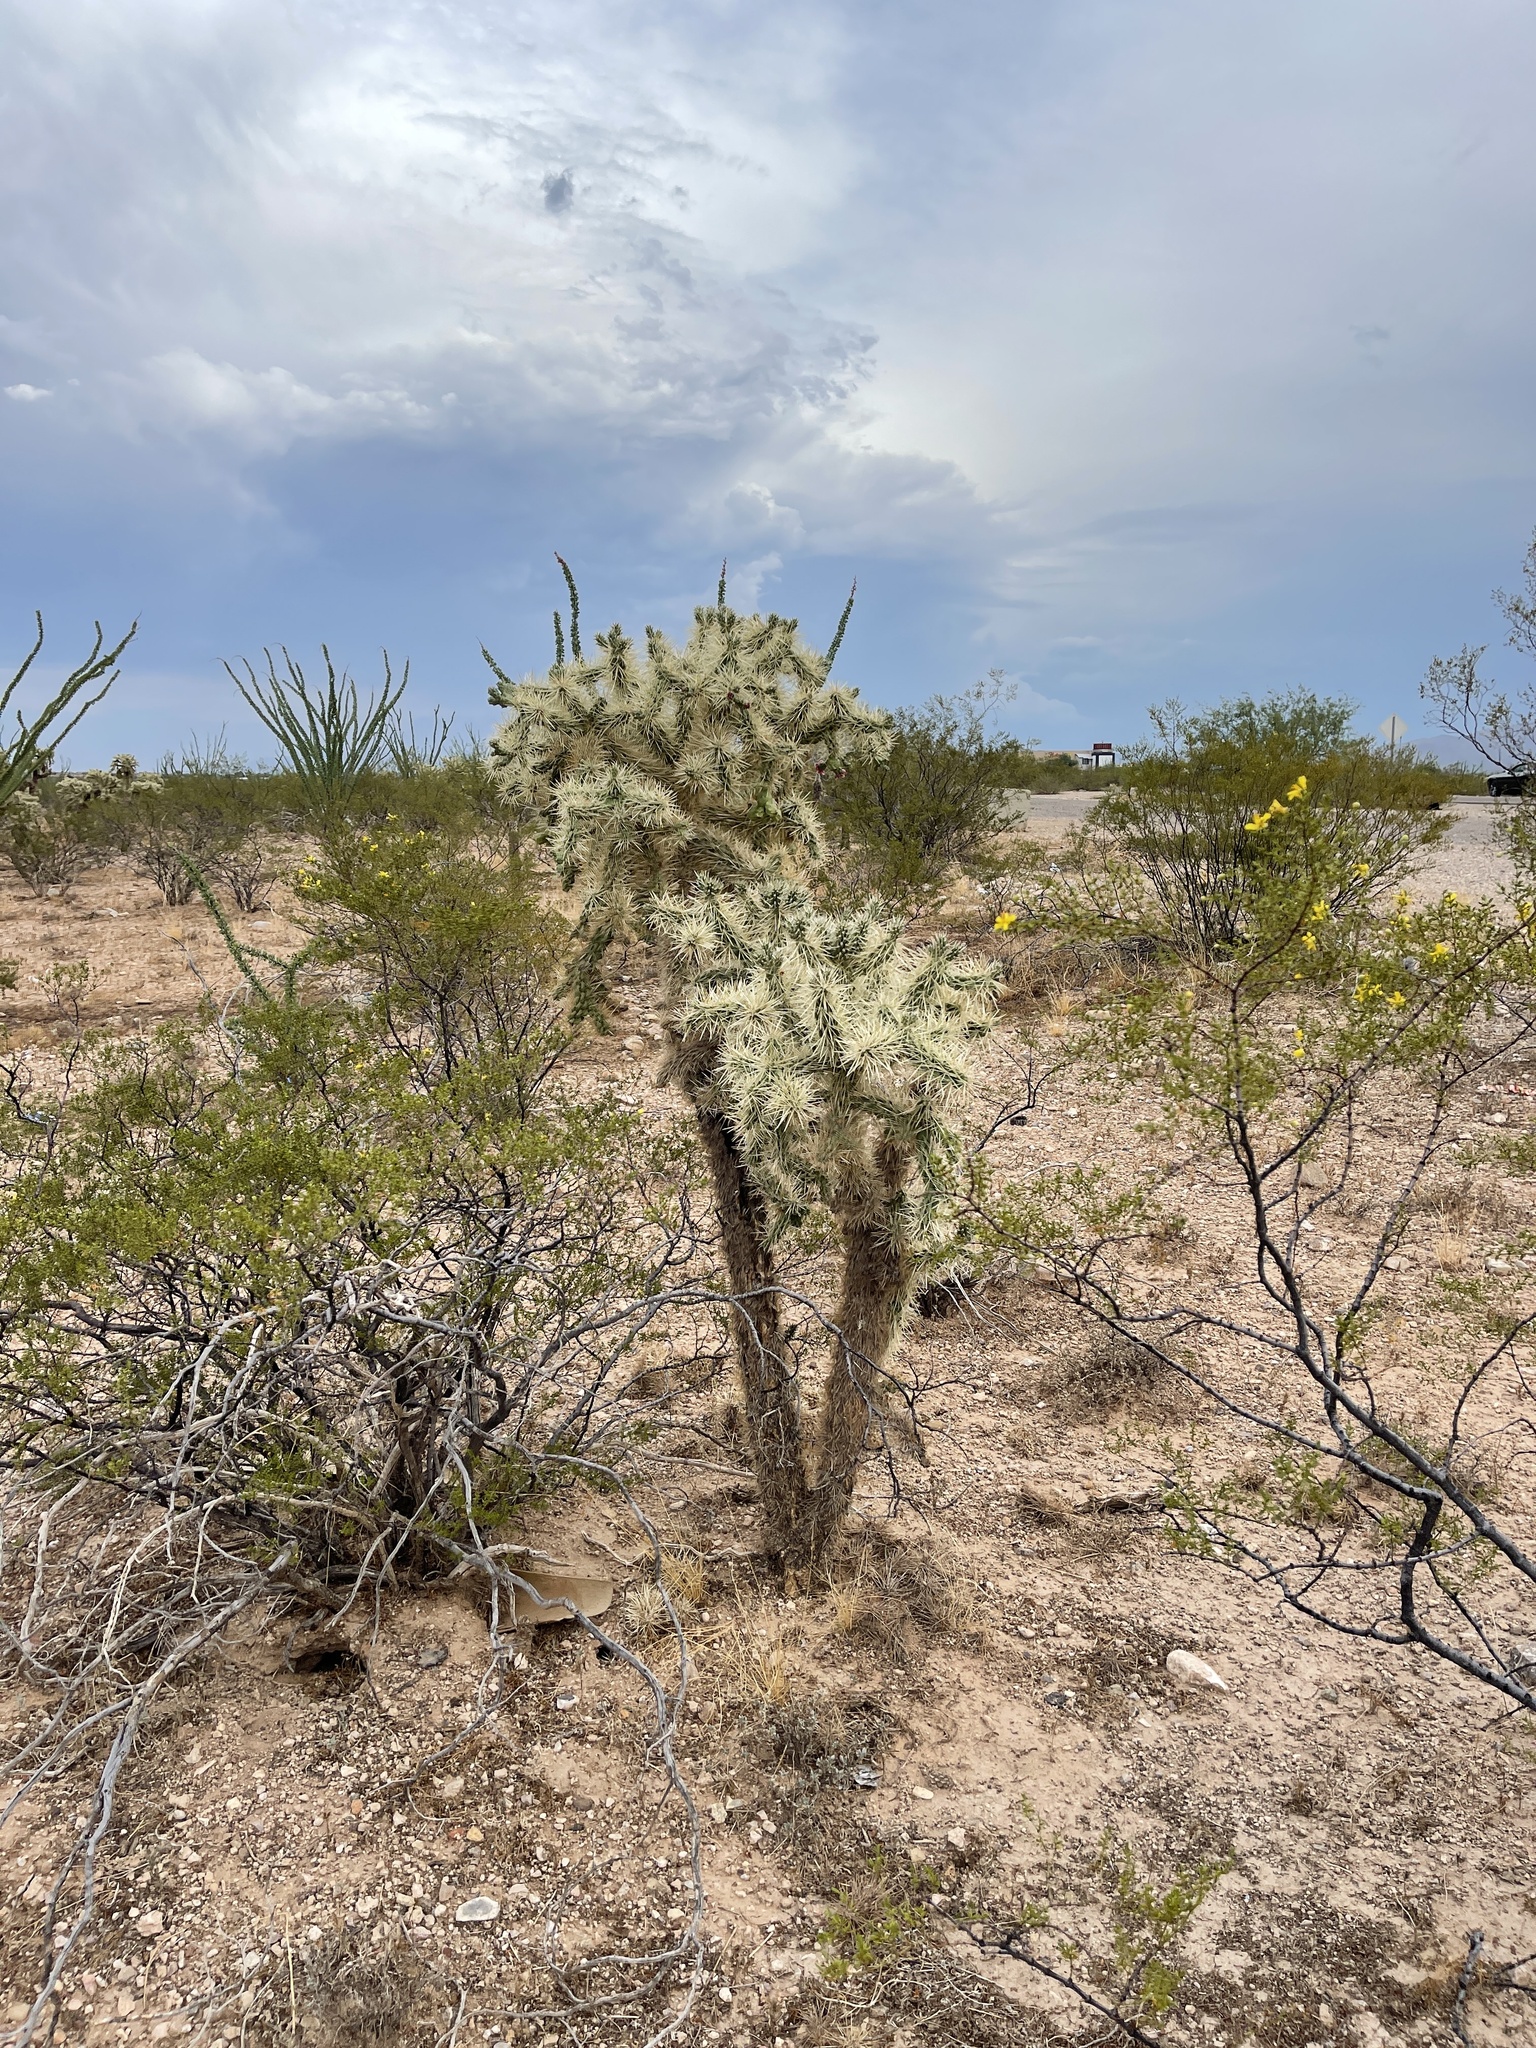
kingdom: Plantae
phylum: Tracheophyta
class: Magnoliopsida
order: Caryophyllales
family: Cactaceae
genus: Cylindropuntia
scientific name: Cylindropuntia fulgida
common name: Jumping cholla
